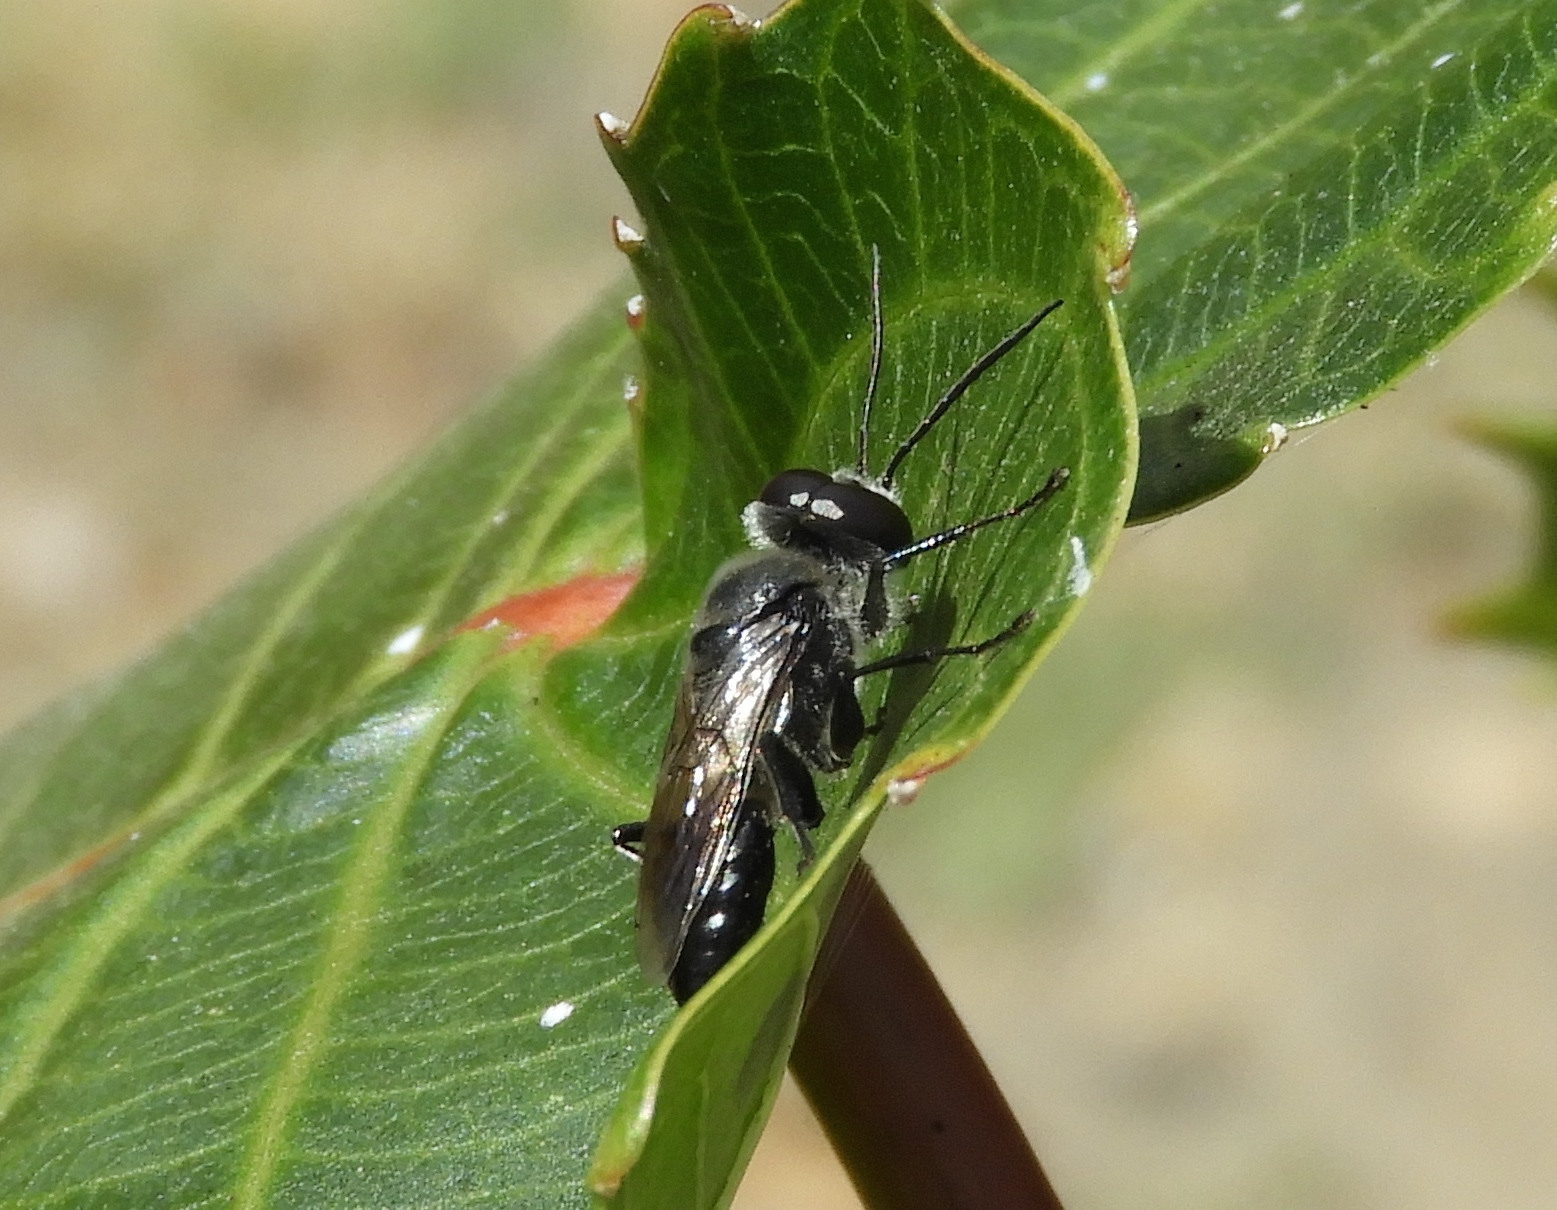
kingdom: Animalia
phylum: Arthropoda
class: Insecta
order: Hymenoptera
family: Crabronidae
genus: Astata
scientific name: Astata
